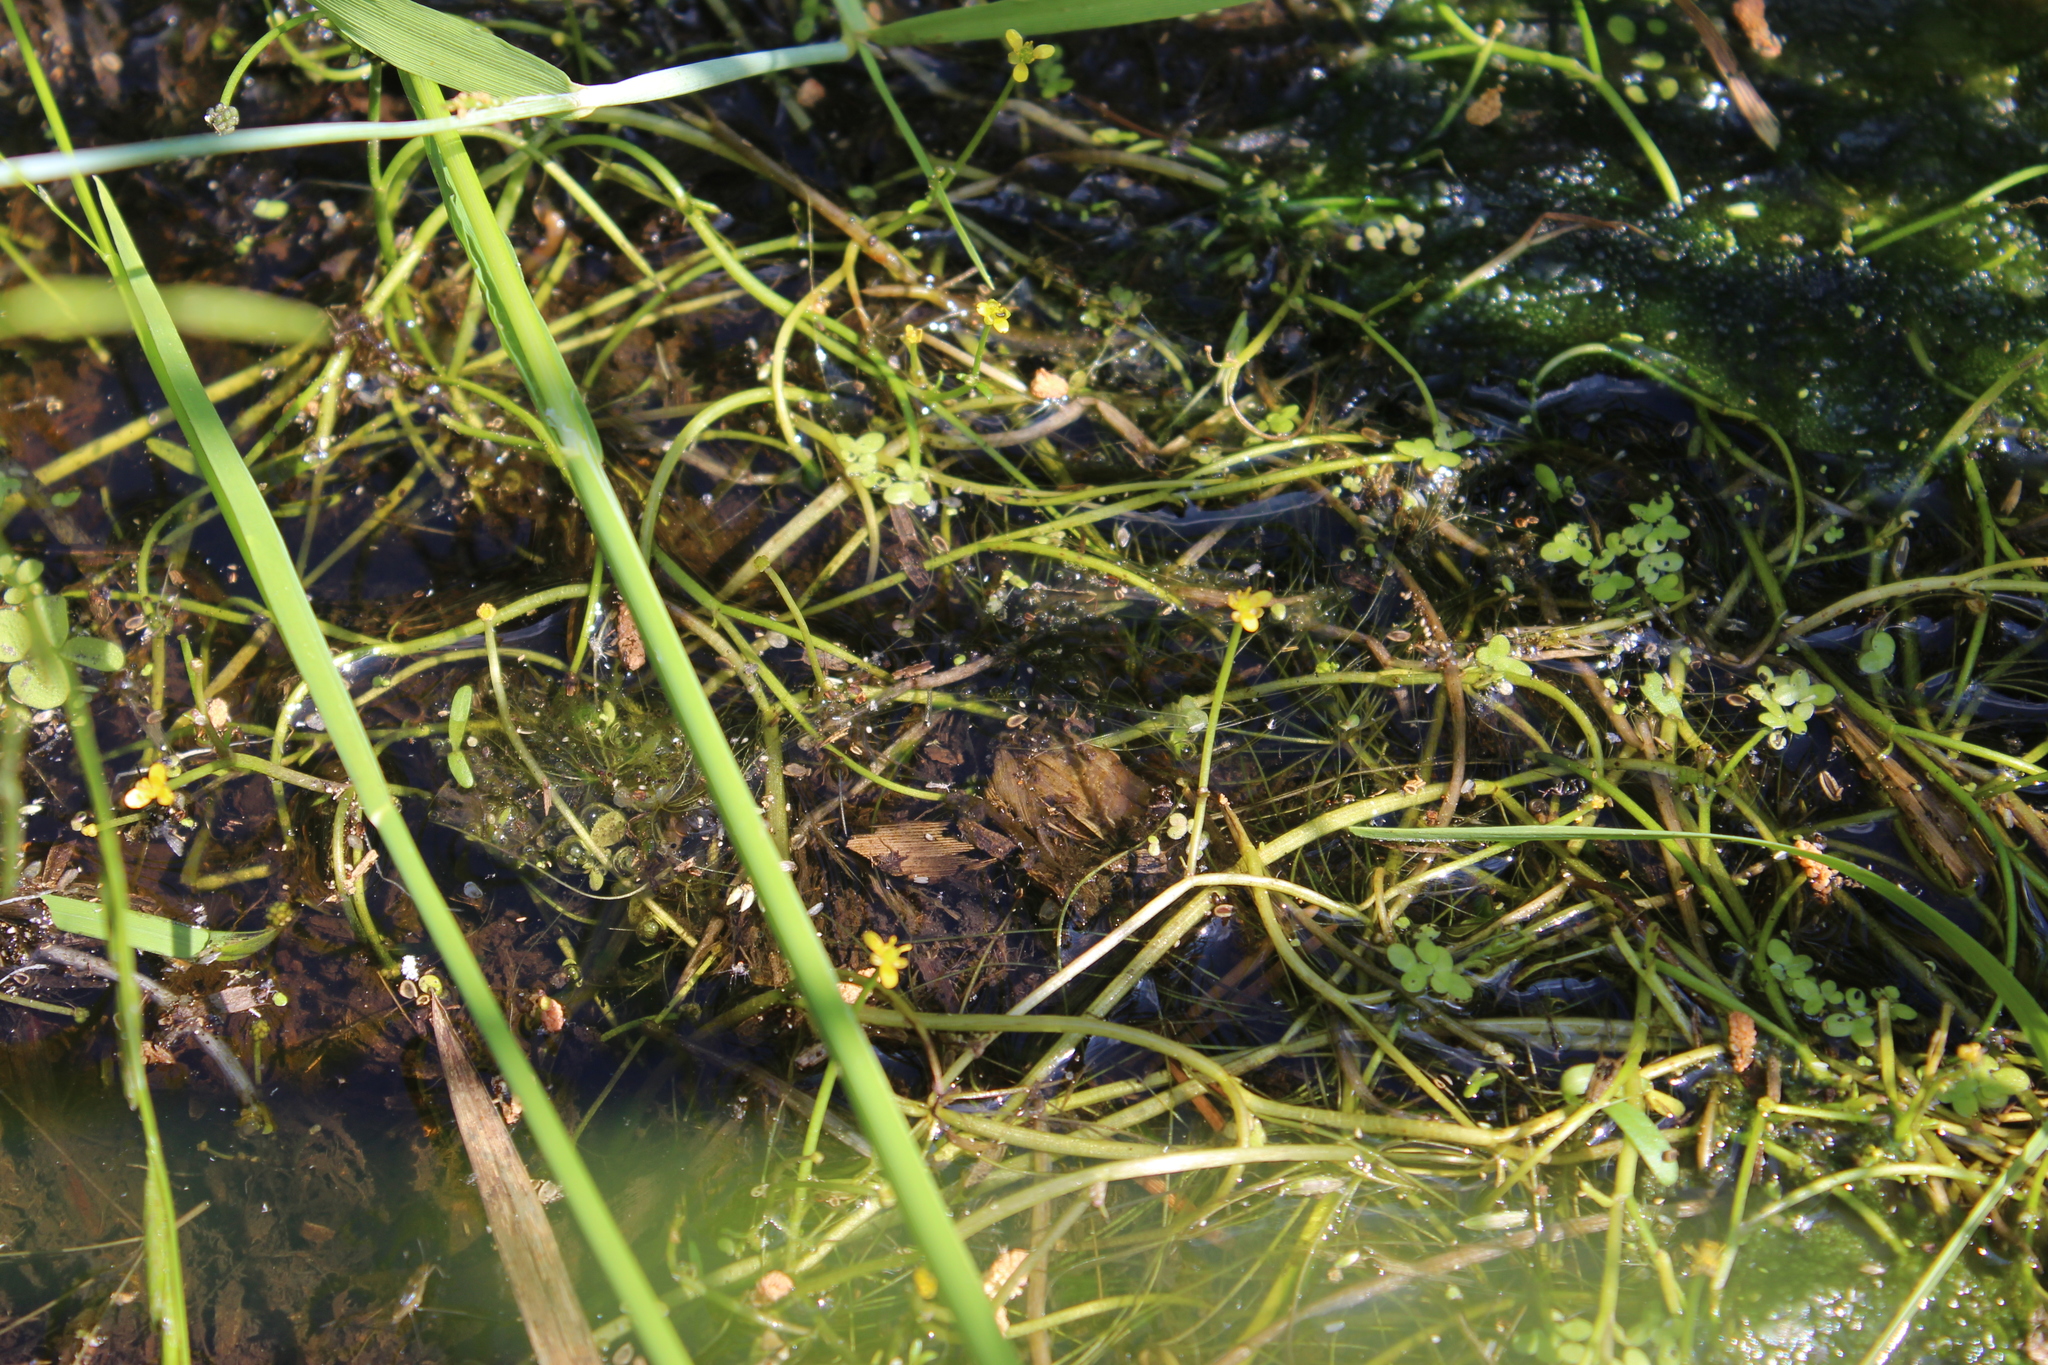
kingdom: Plantae
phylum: Tracheophyta
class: Magnoliopsida
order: Ranunculales
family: Ranunculaceae
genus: Ranunculus
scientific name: Ranunculus polyphyllus
